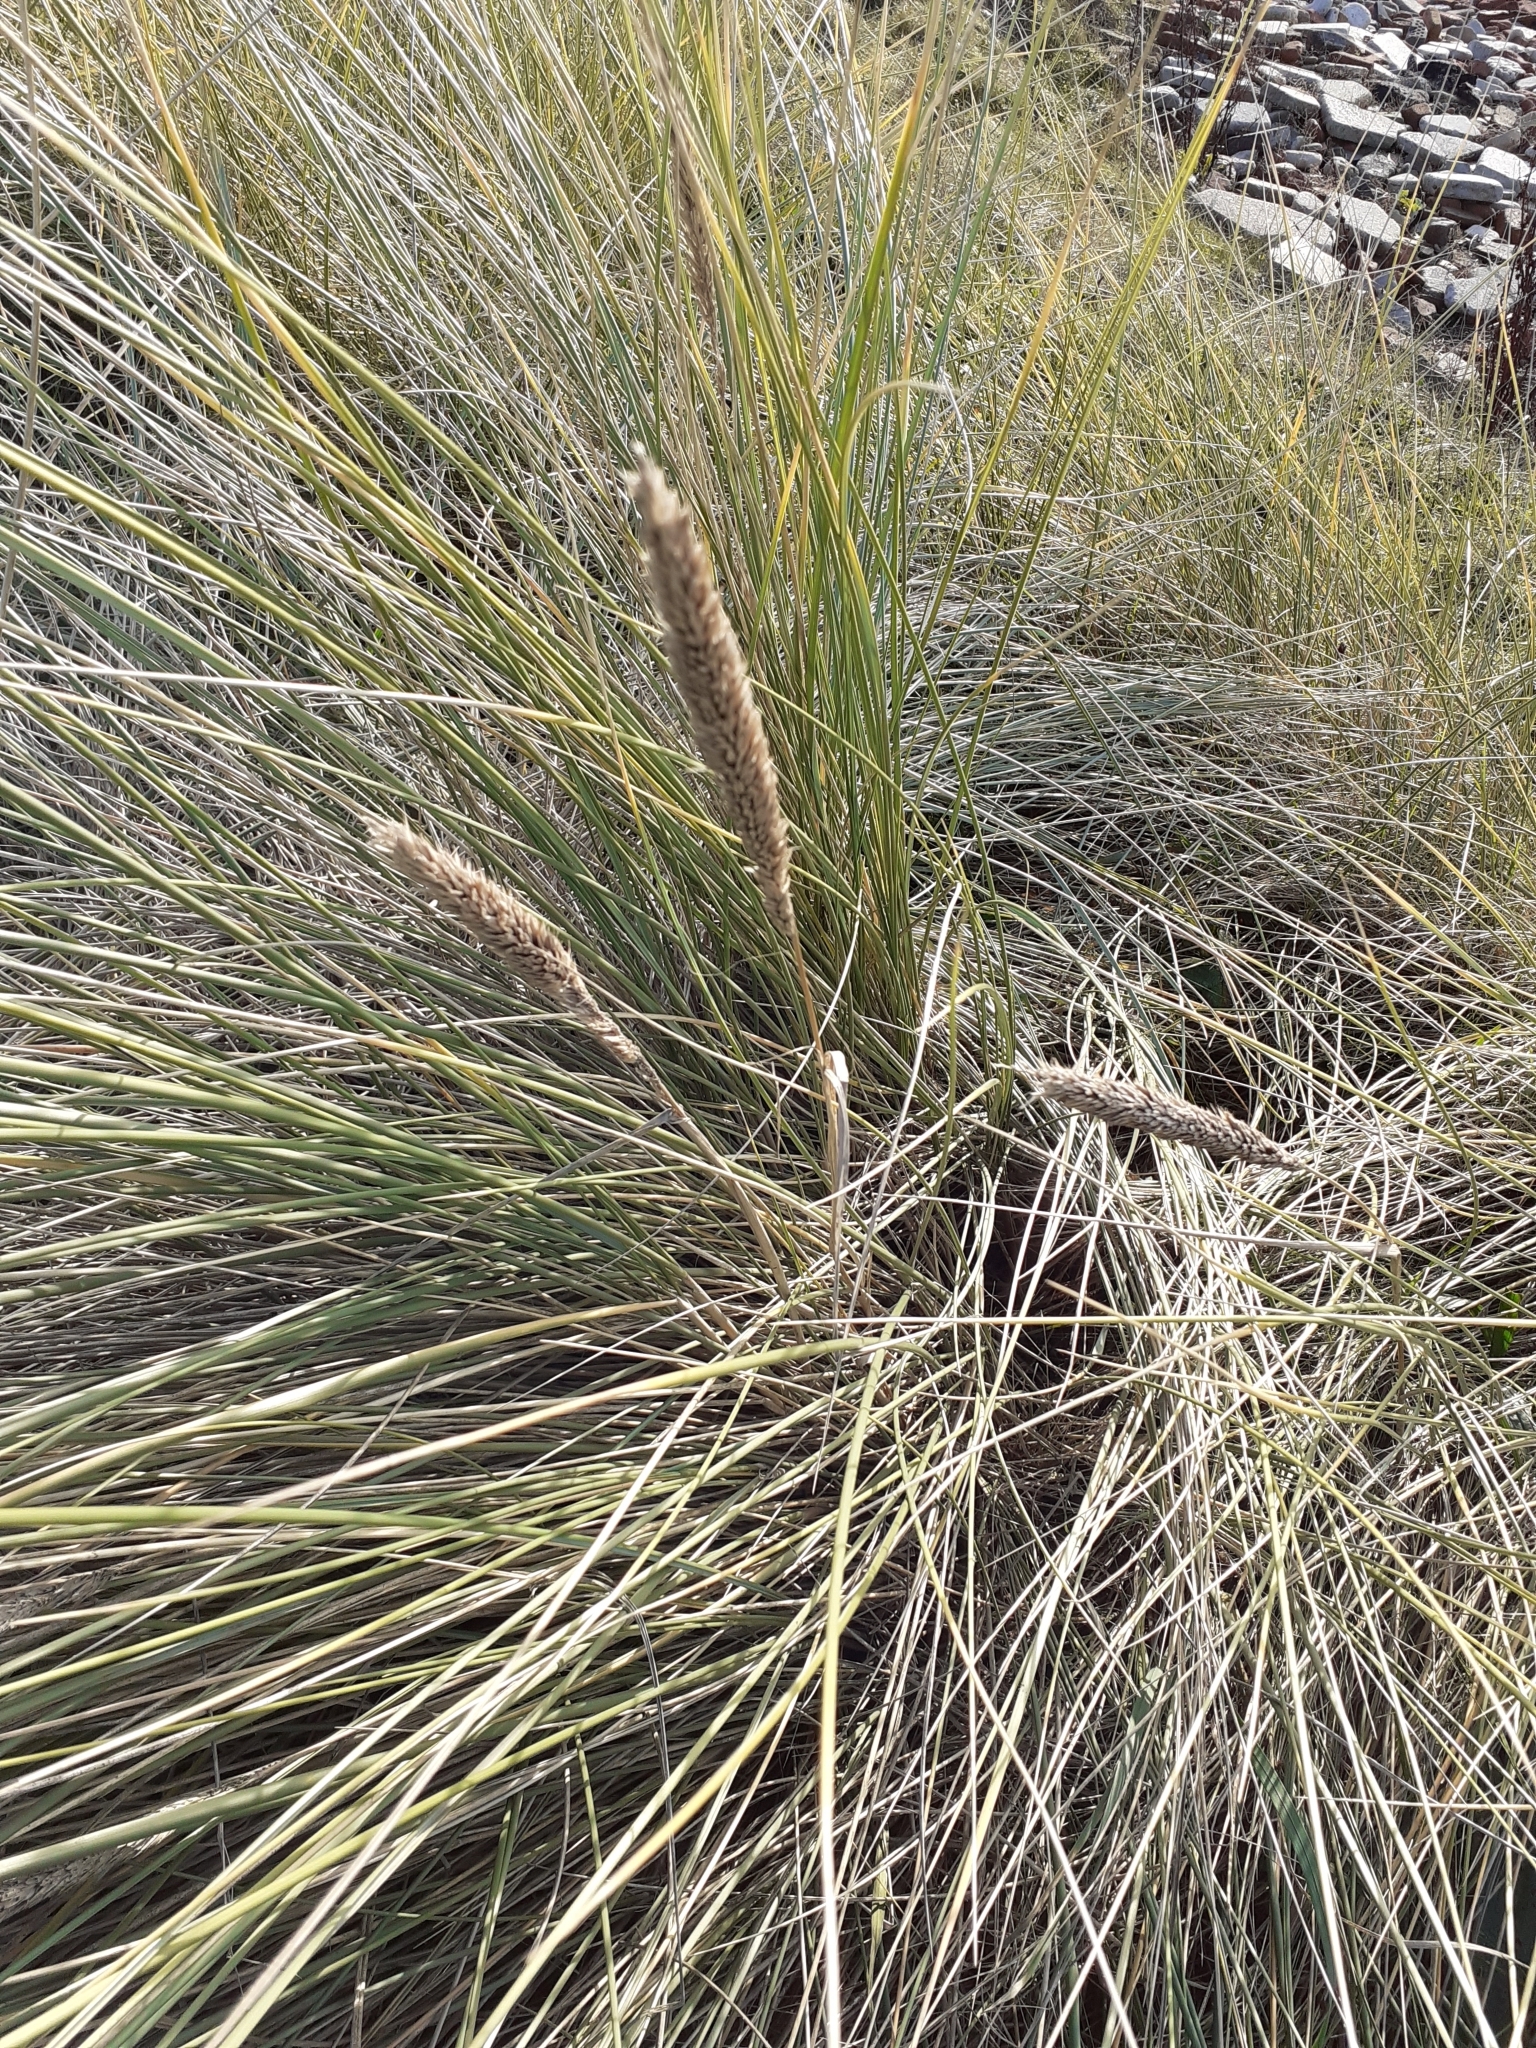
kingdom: Plantae
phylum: Tracheophyta
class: Liliopsida
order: Poales
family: Poaceae
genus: Calamagrostis
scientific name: Calamagrostis arenaria
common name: European beachgrass
